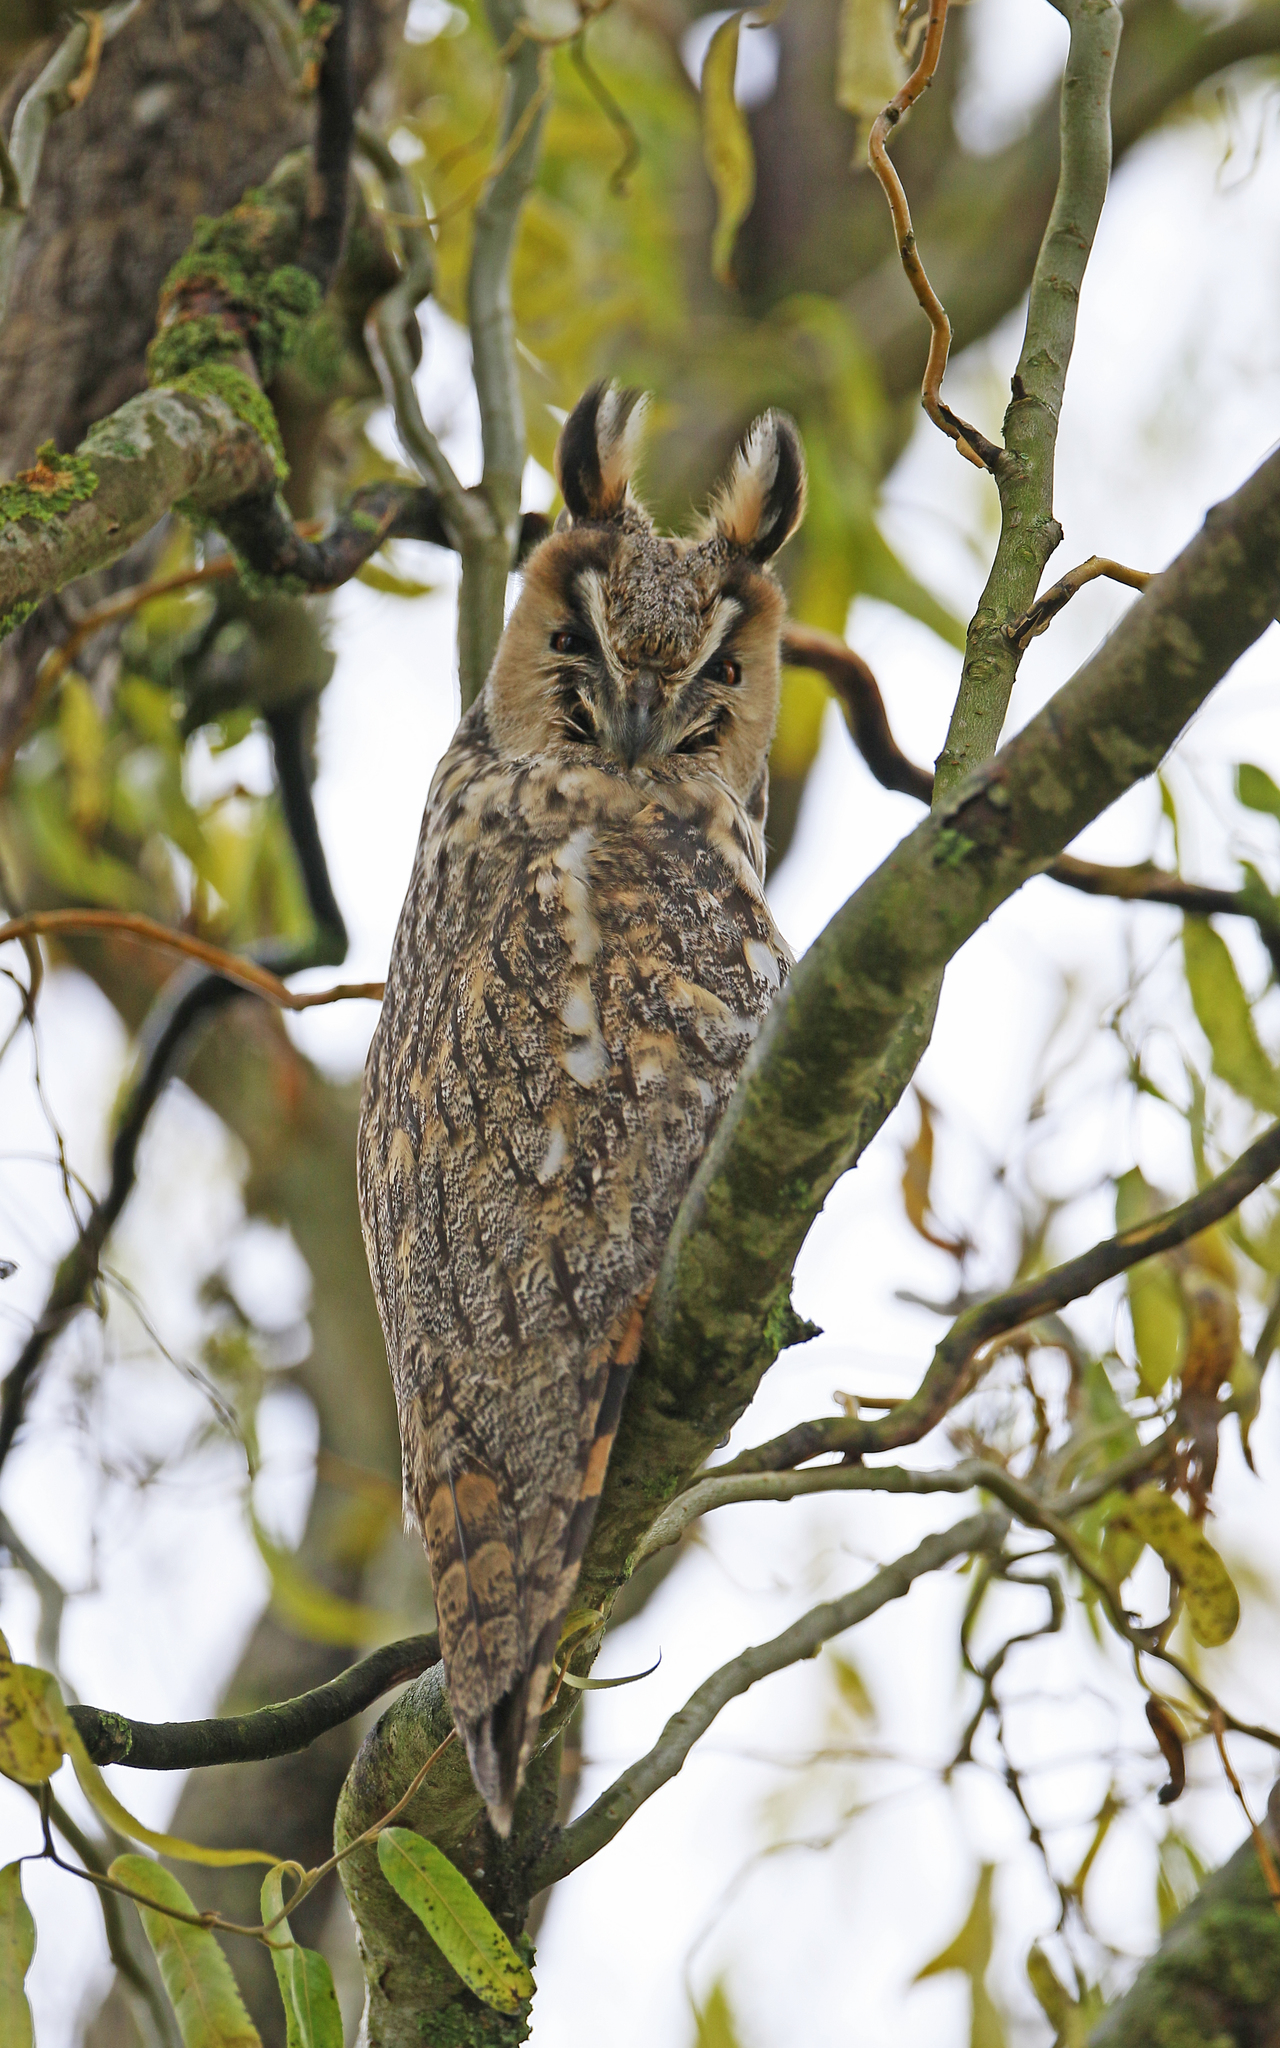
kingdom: Animalia
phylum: Chordata
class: Aves
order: Strigiformes
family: Strigidae
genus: Asio
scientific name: Asio otus
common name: Long-eared owl
